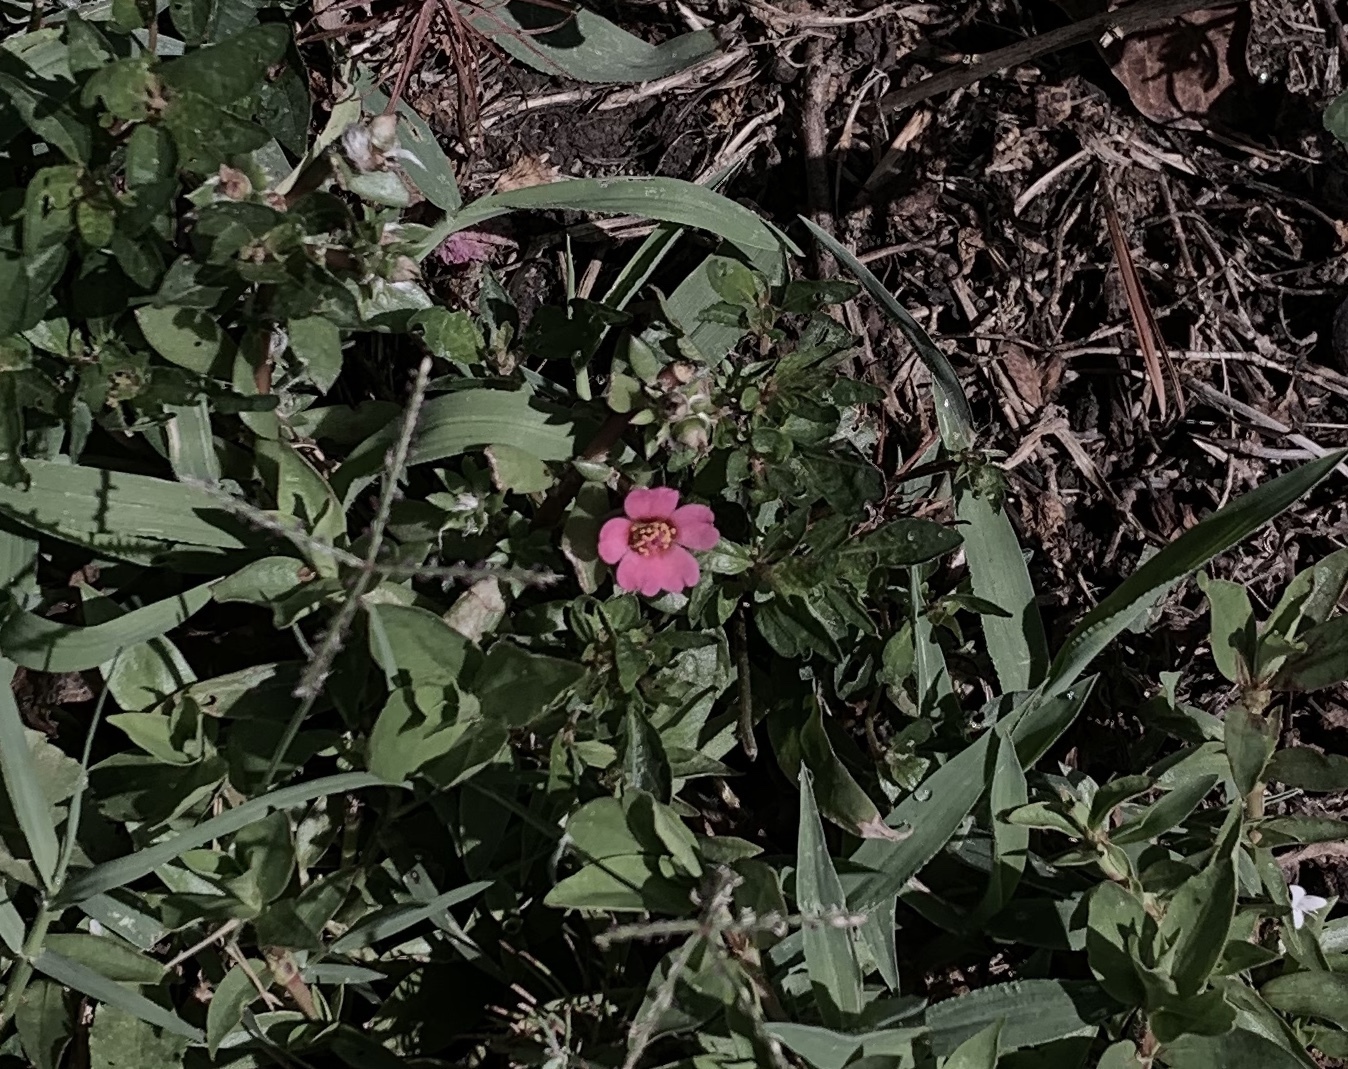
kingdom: Plantae
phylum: Tracheophyta
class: Magnoliopsida
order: Caryophyllales
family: Portulacaceae
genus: Portulaca
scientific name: Portulaca amilis
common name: Paraguayan purslane
